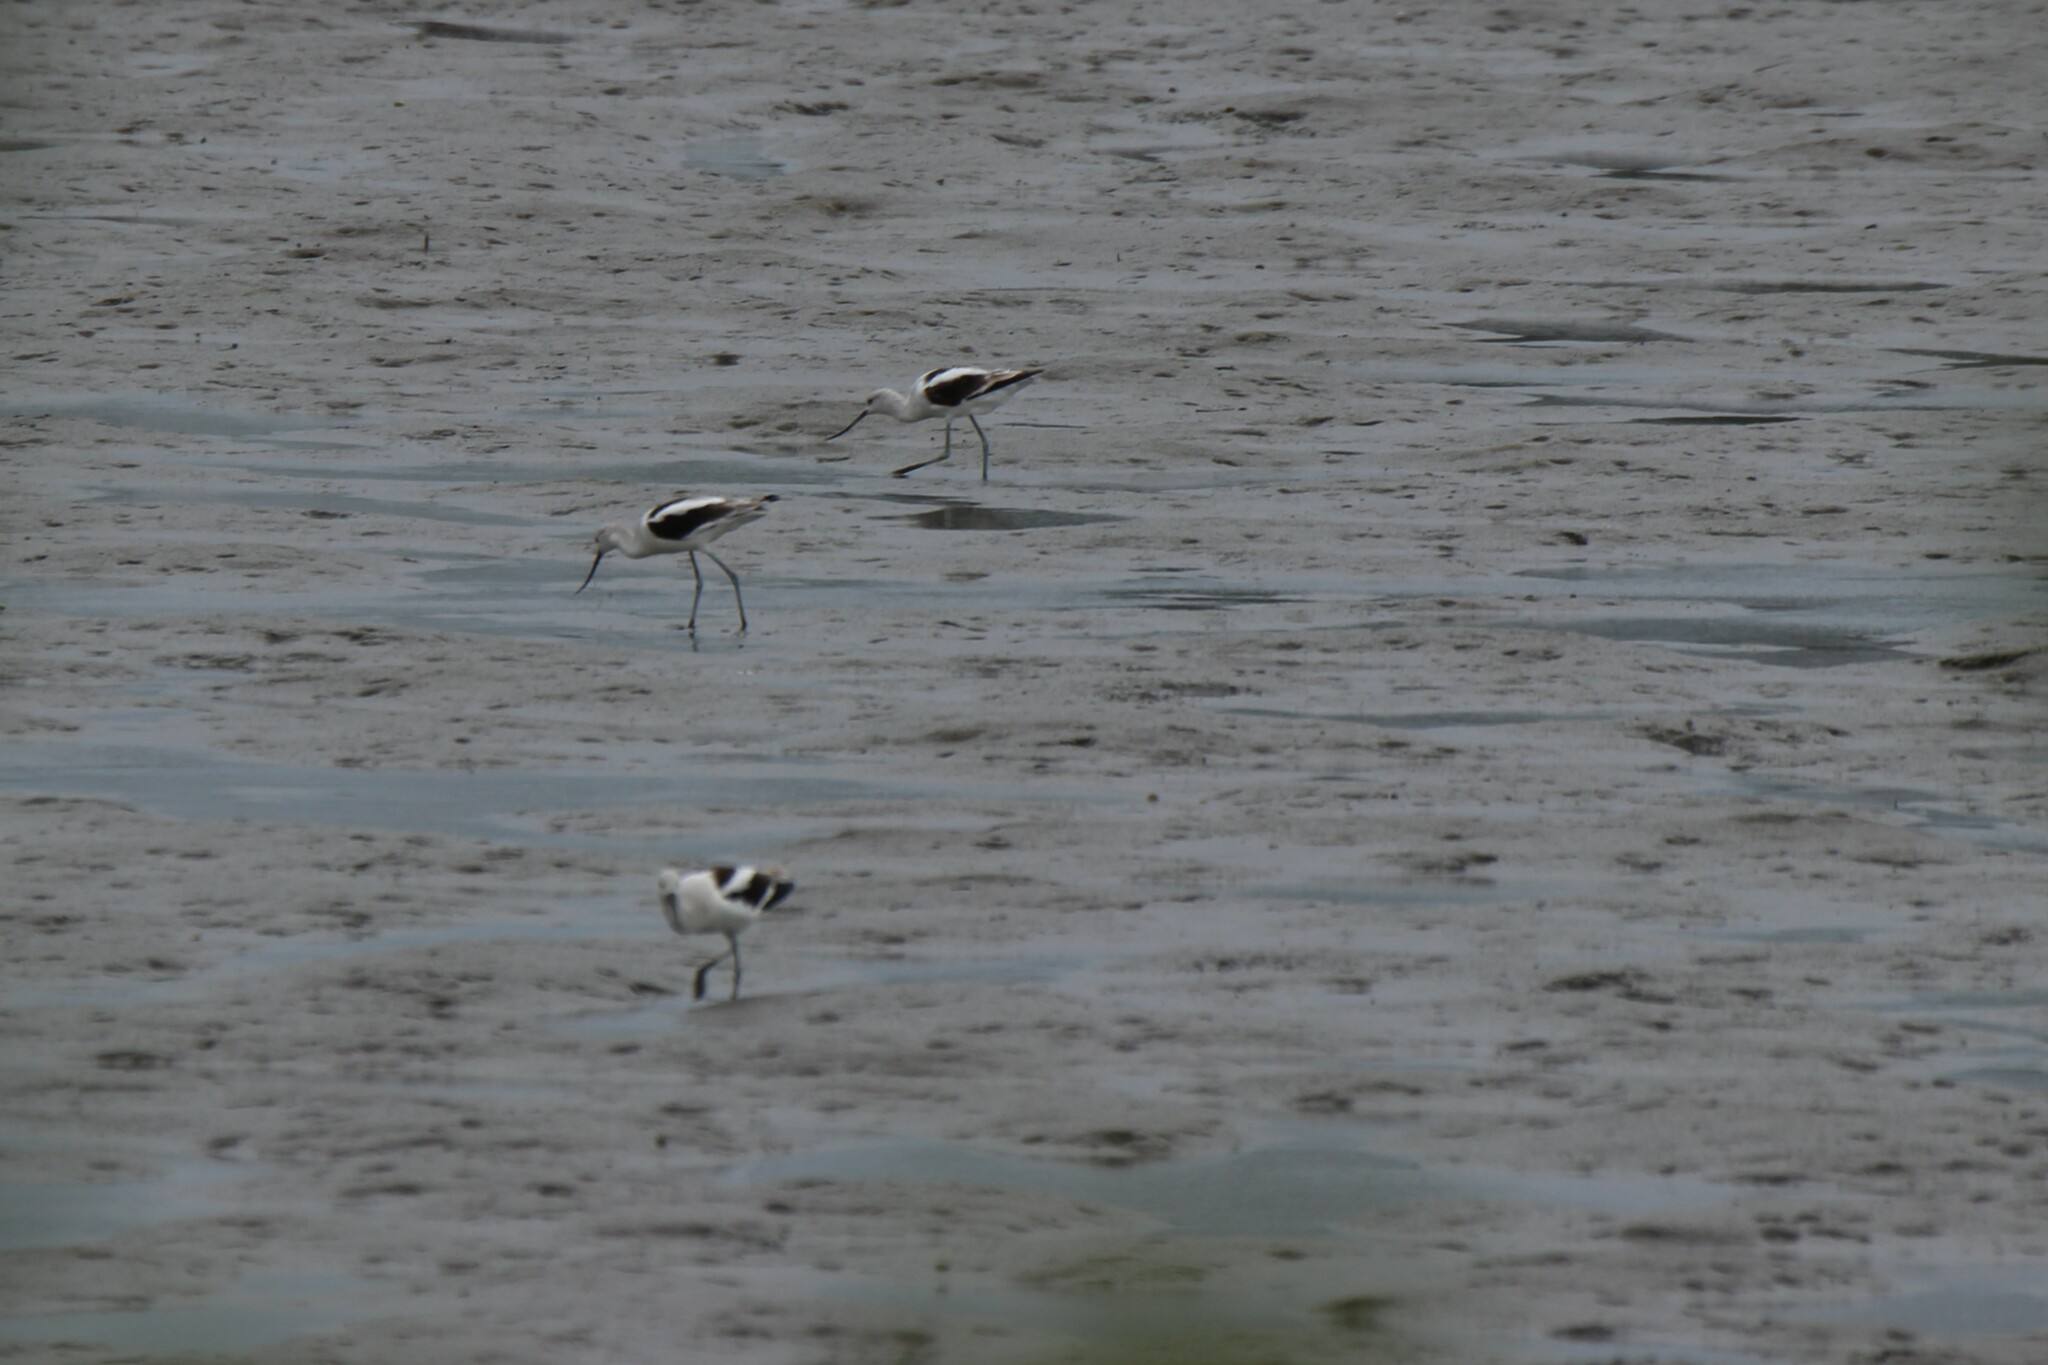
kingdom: Animalia
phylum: Chordata
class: Aves
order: Charadriiformes
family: Recurvirostridae
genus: Recurvirostra
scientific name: Recurvirostra americana
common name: American avocet
